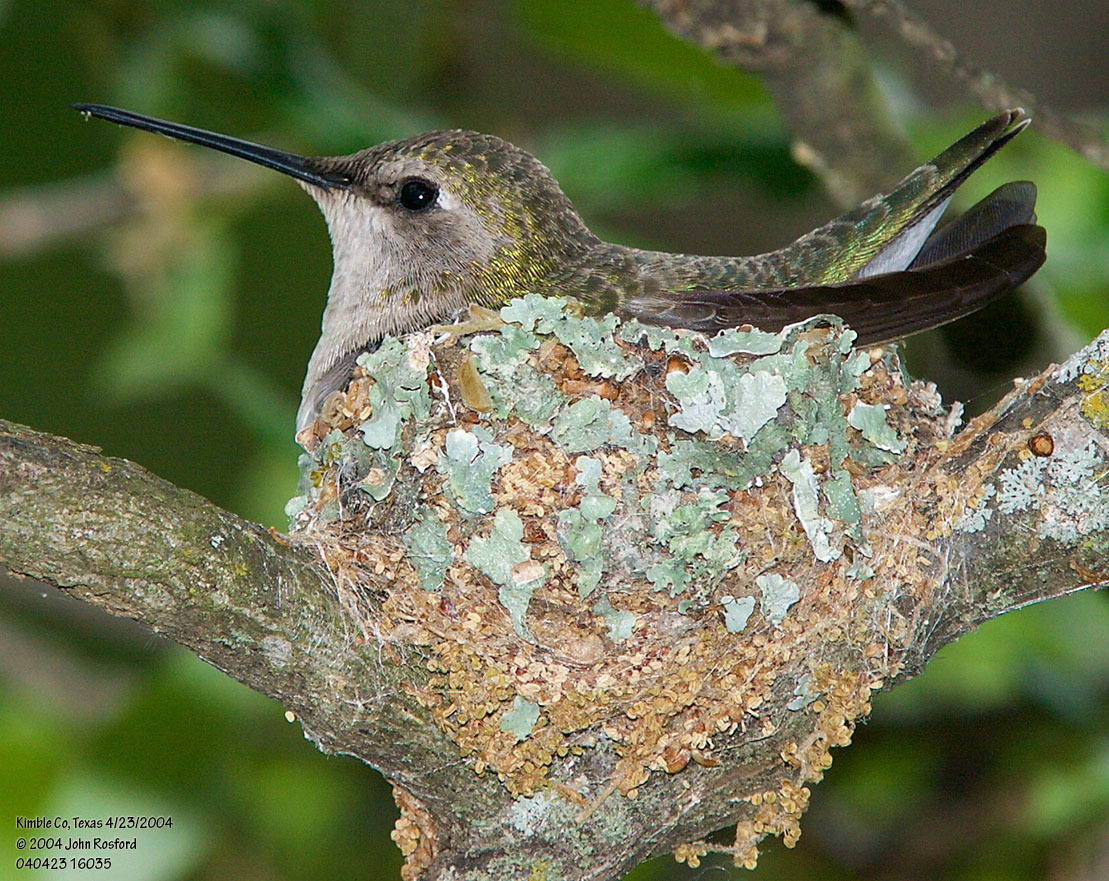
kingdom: Animalia
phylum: Chordata
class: Aves
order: Apodiformes
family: Trochilidae
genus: Archilochus
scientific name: Archilochus alexandri
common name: Black-chinned hummingbird
